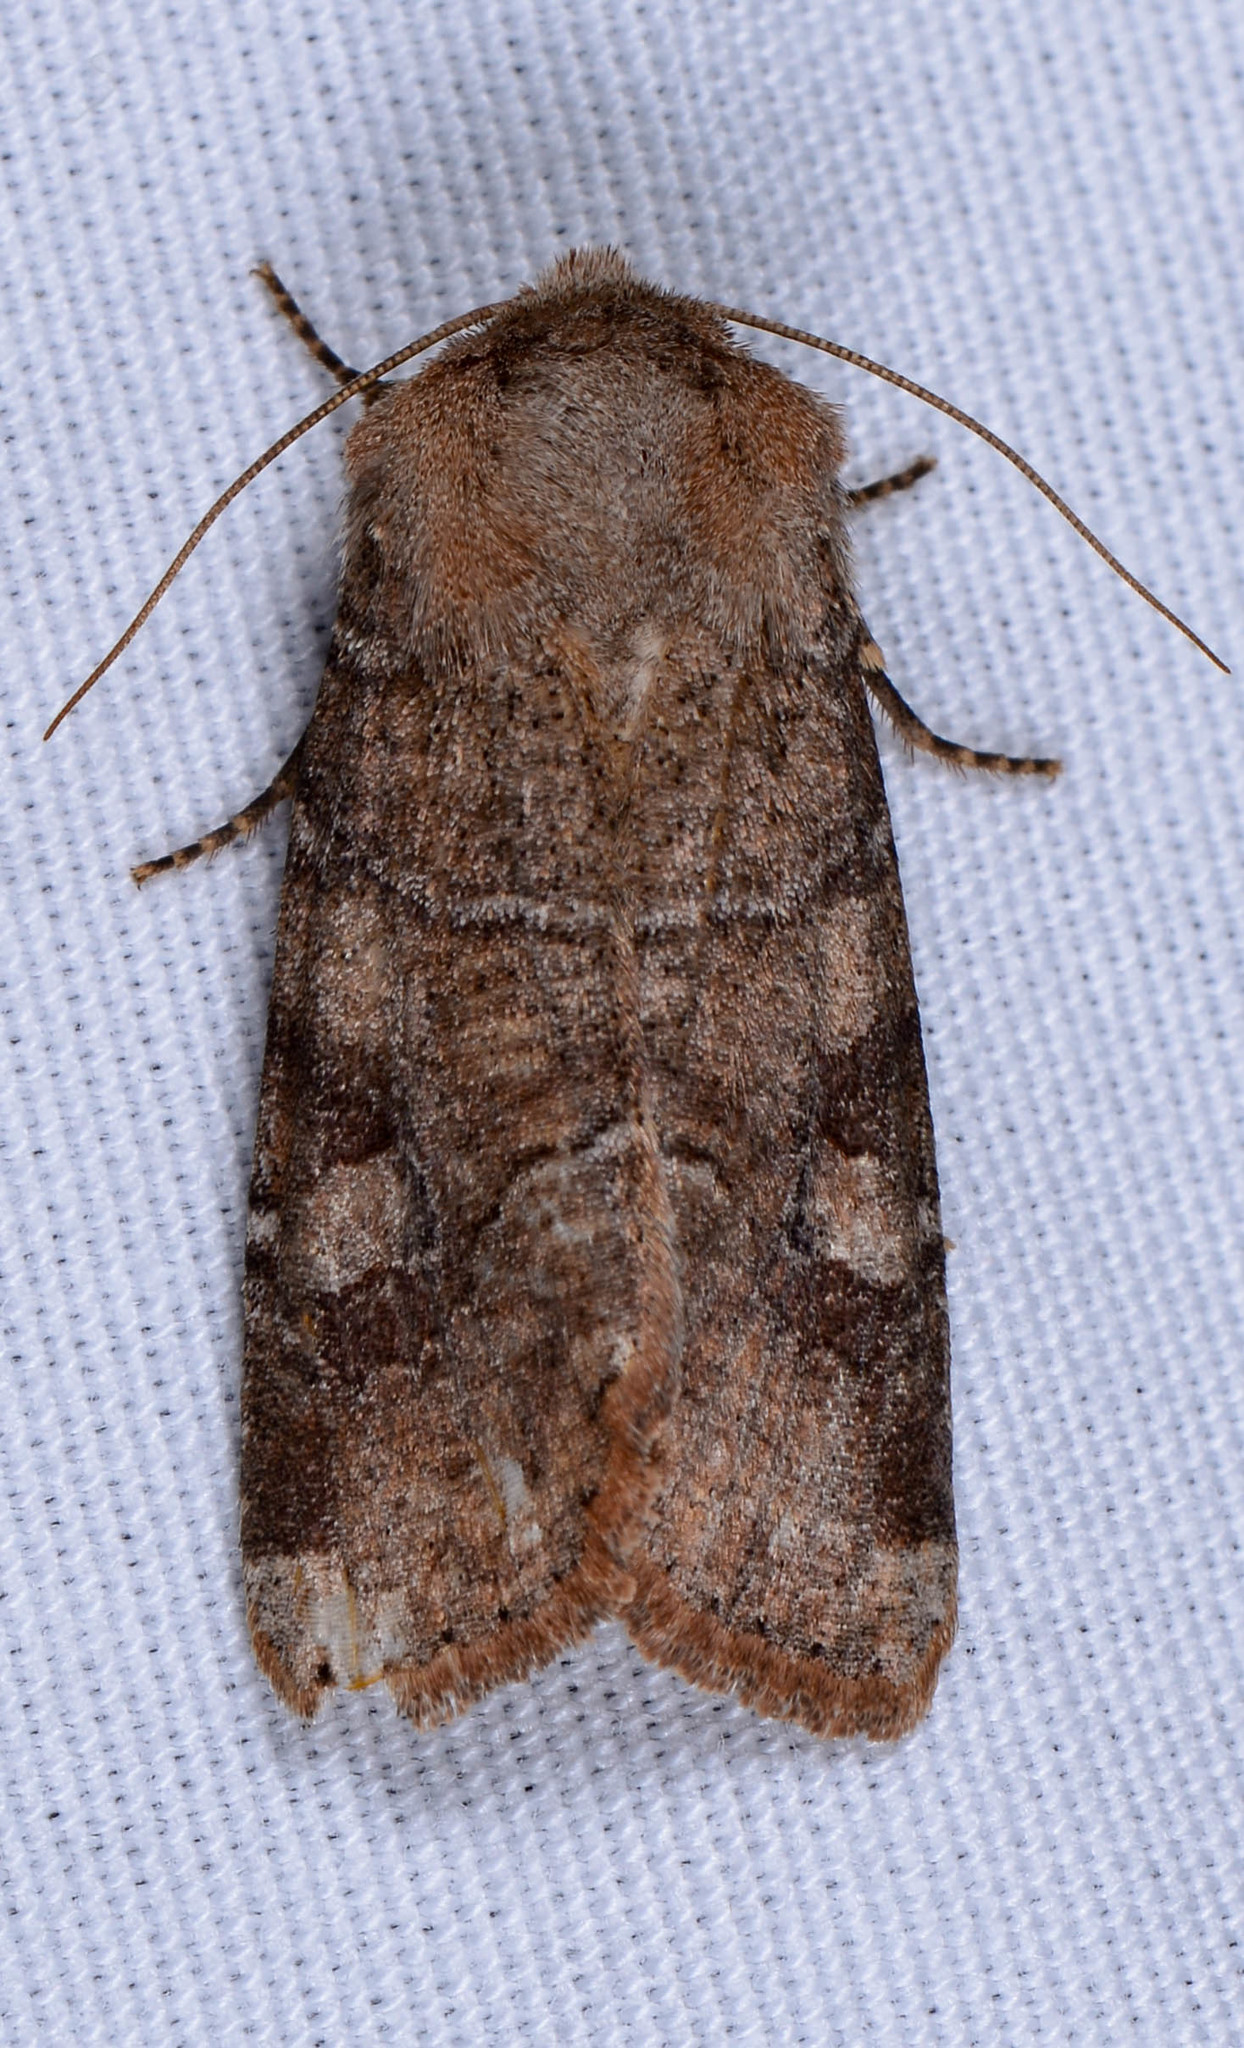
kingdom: Animalia
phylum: Arthropoda
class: Insecta
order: Lepidoptera
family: Noctuidae
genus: Crocigrapha
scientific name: Crocigrapha normani
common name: Norman's quaker
